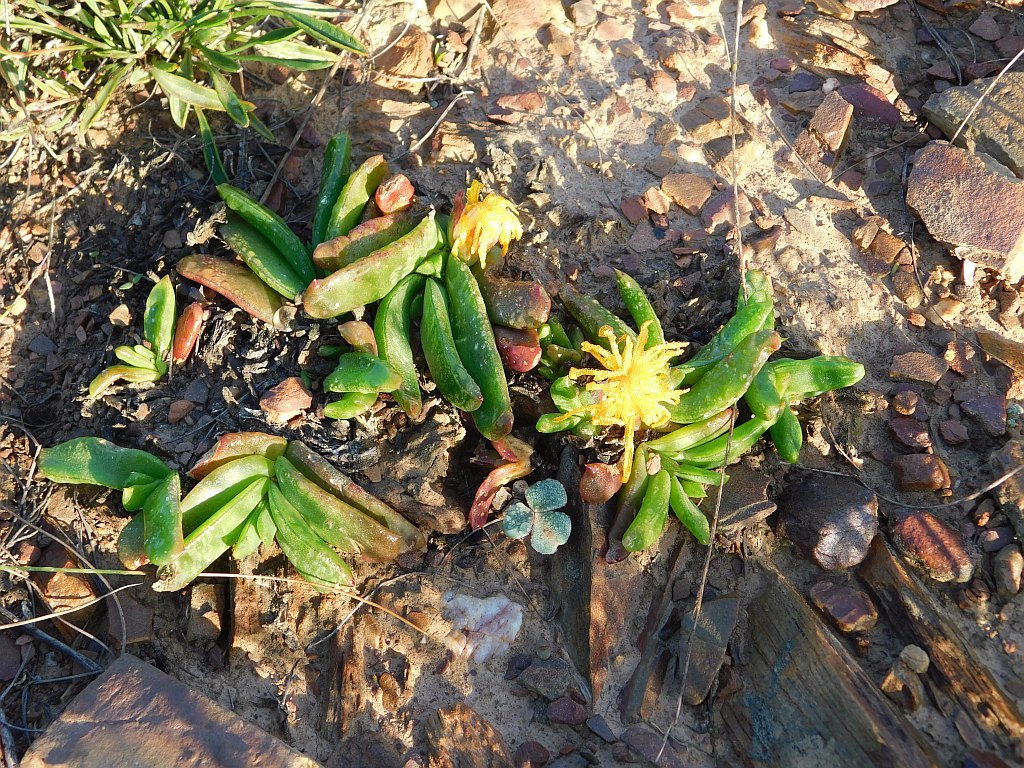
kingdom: Plantae
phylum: Tracheophyta
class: Magnoliopsida
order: Caryophyllales
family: Aizoaceae
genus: Glottiphyllum
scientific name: Glottiphyllum depressum
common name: Fig-marigold
